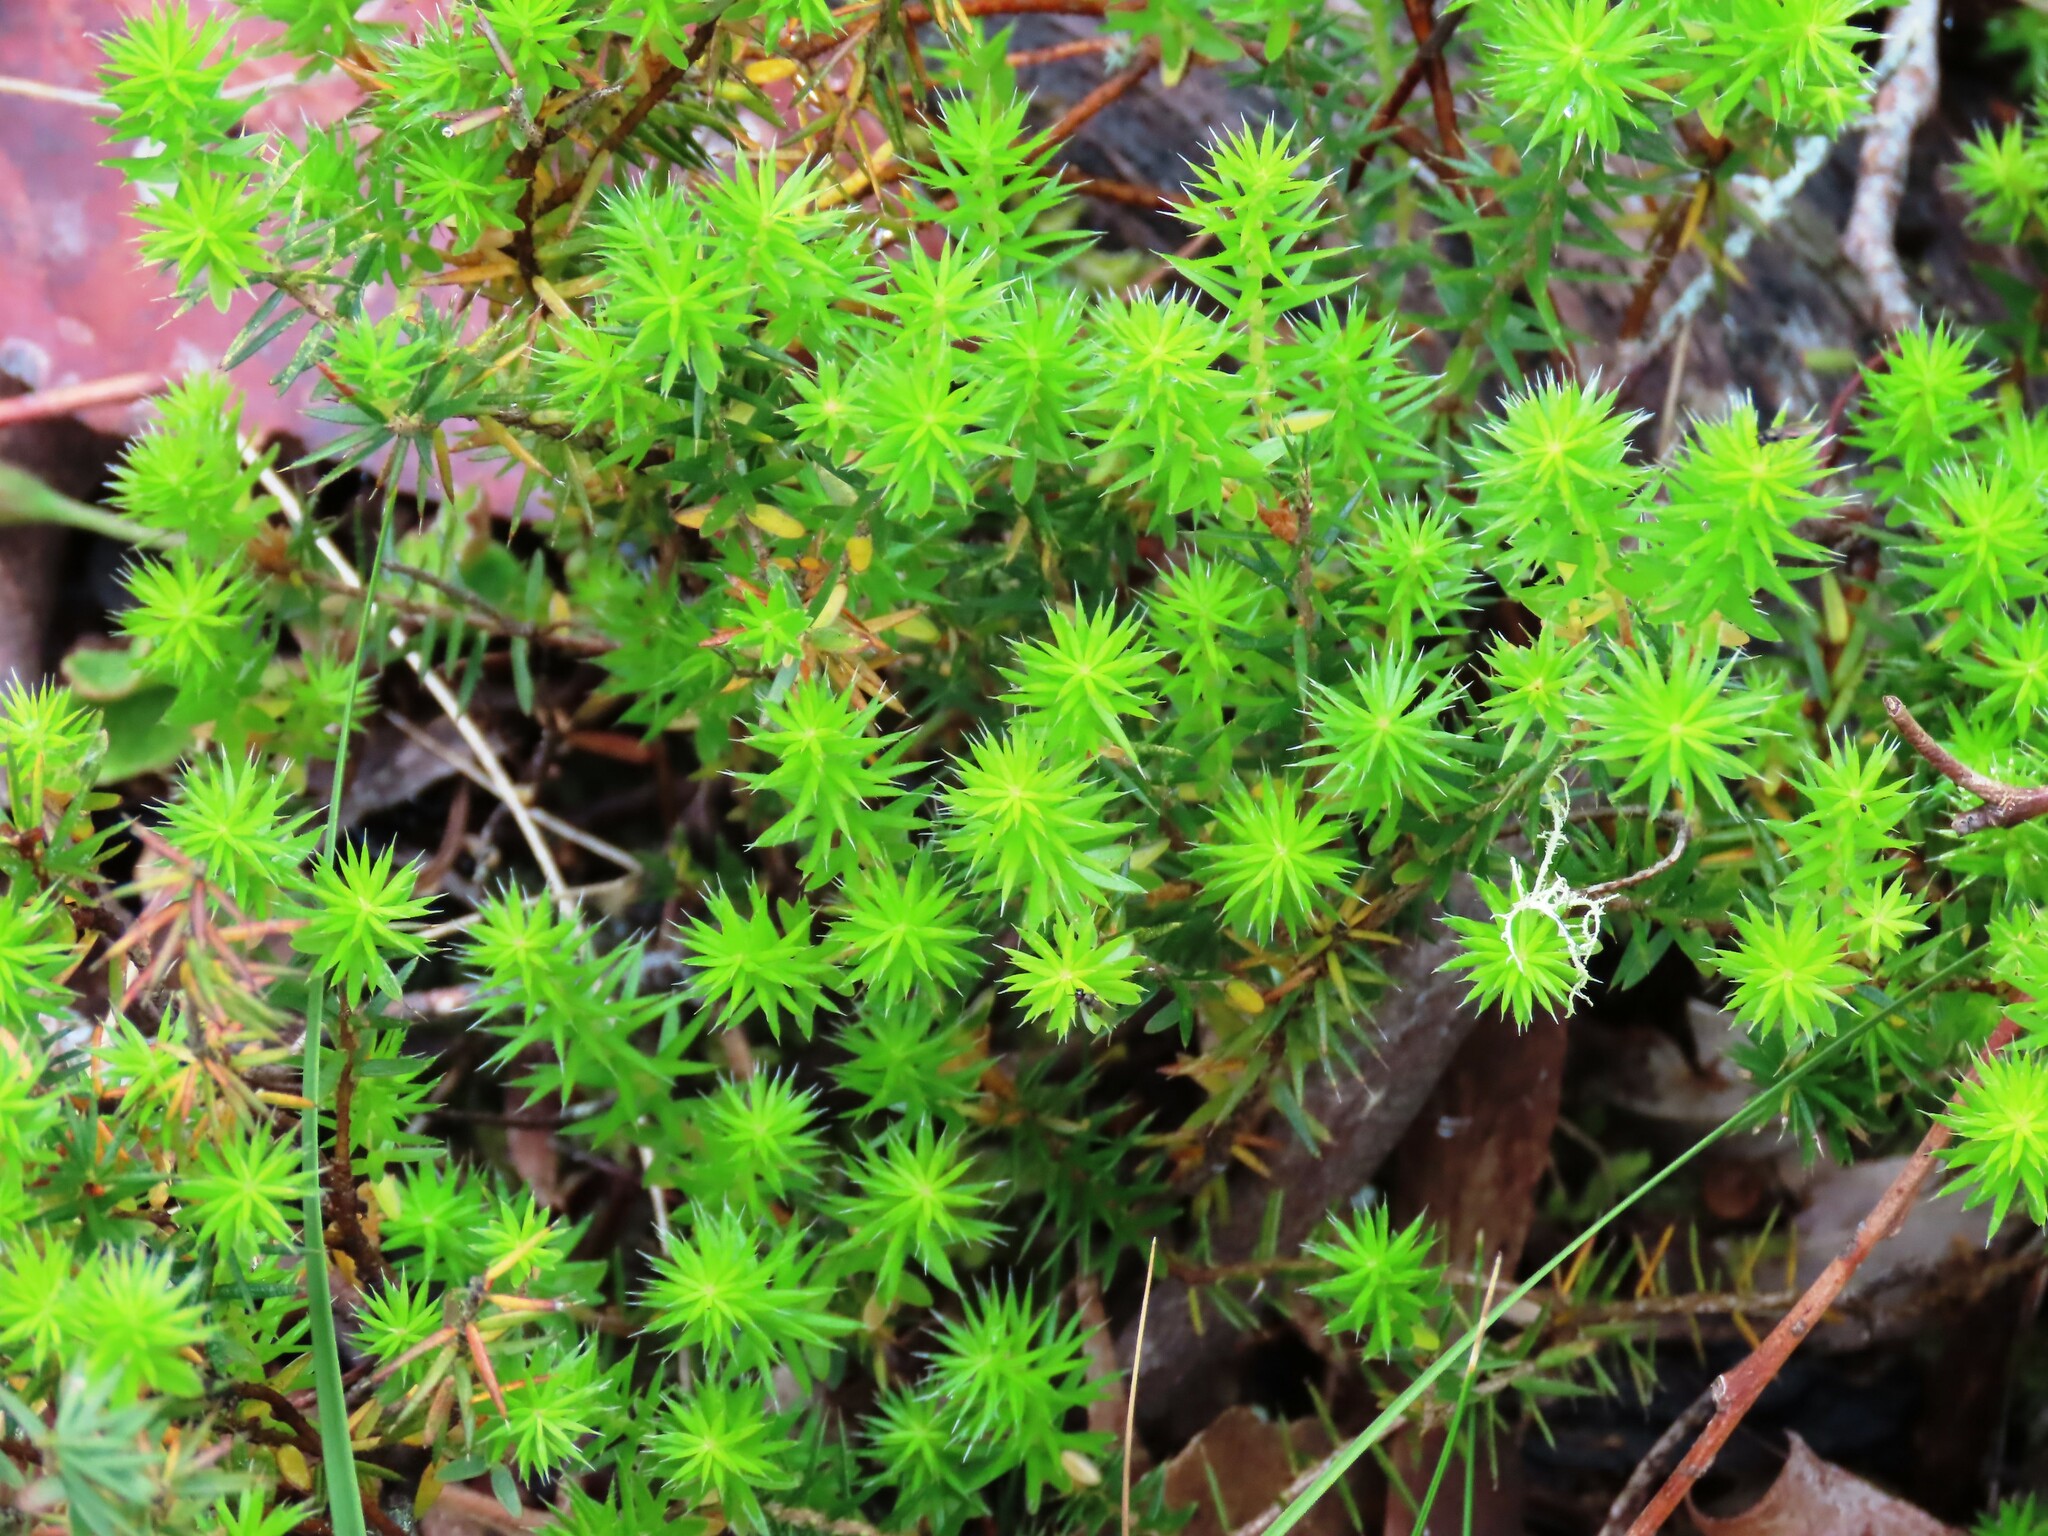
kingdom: Plantae
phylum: Tracheophyta
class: Magnoliopsida
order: Ericales
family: Ericaceae
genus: Acrotriche
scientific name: Acrotriche serrulata
